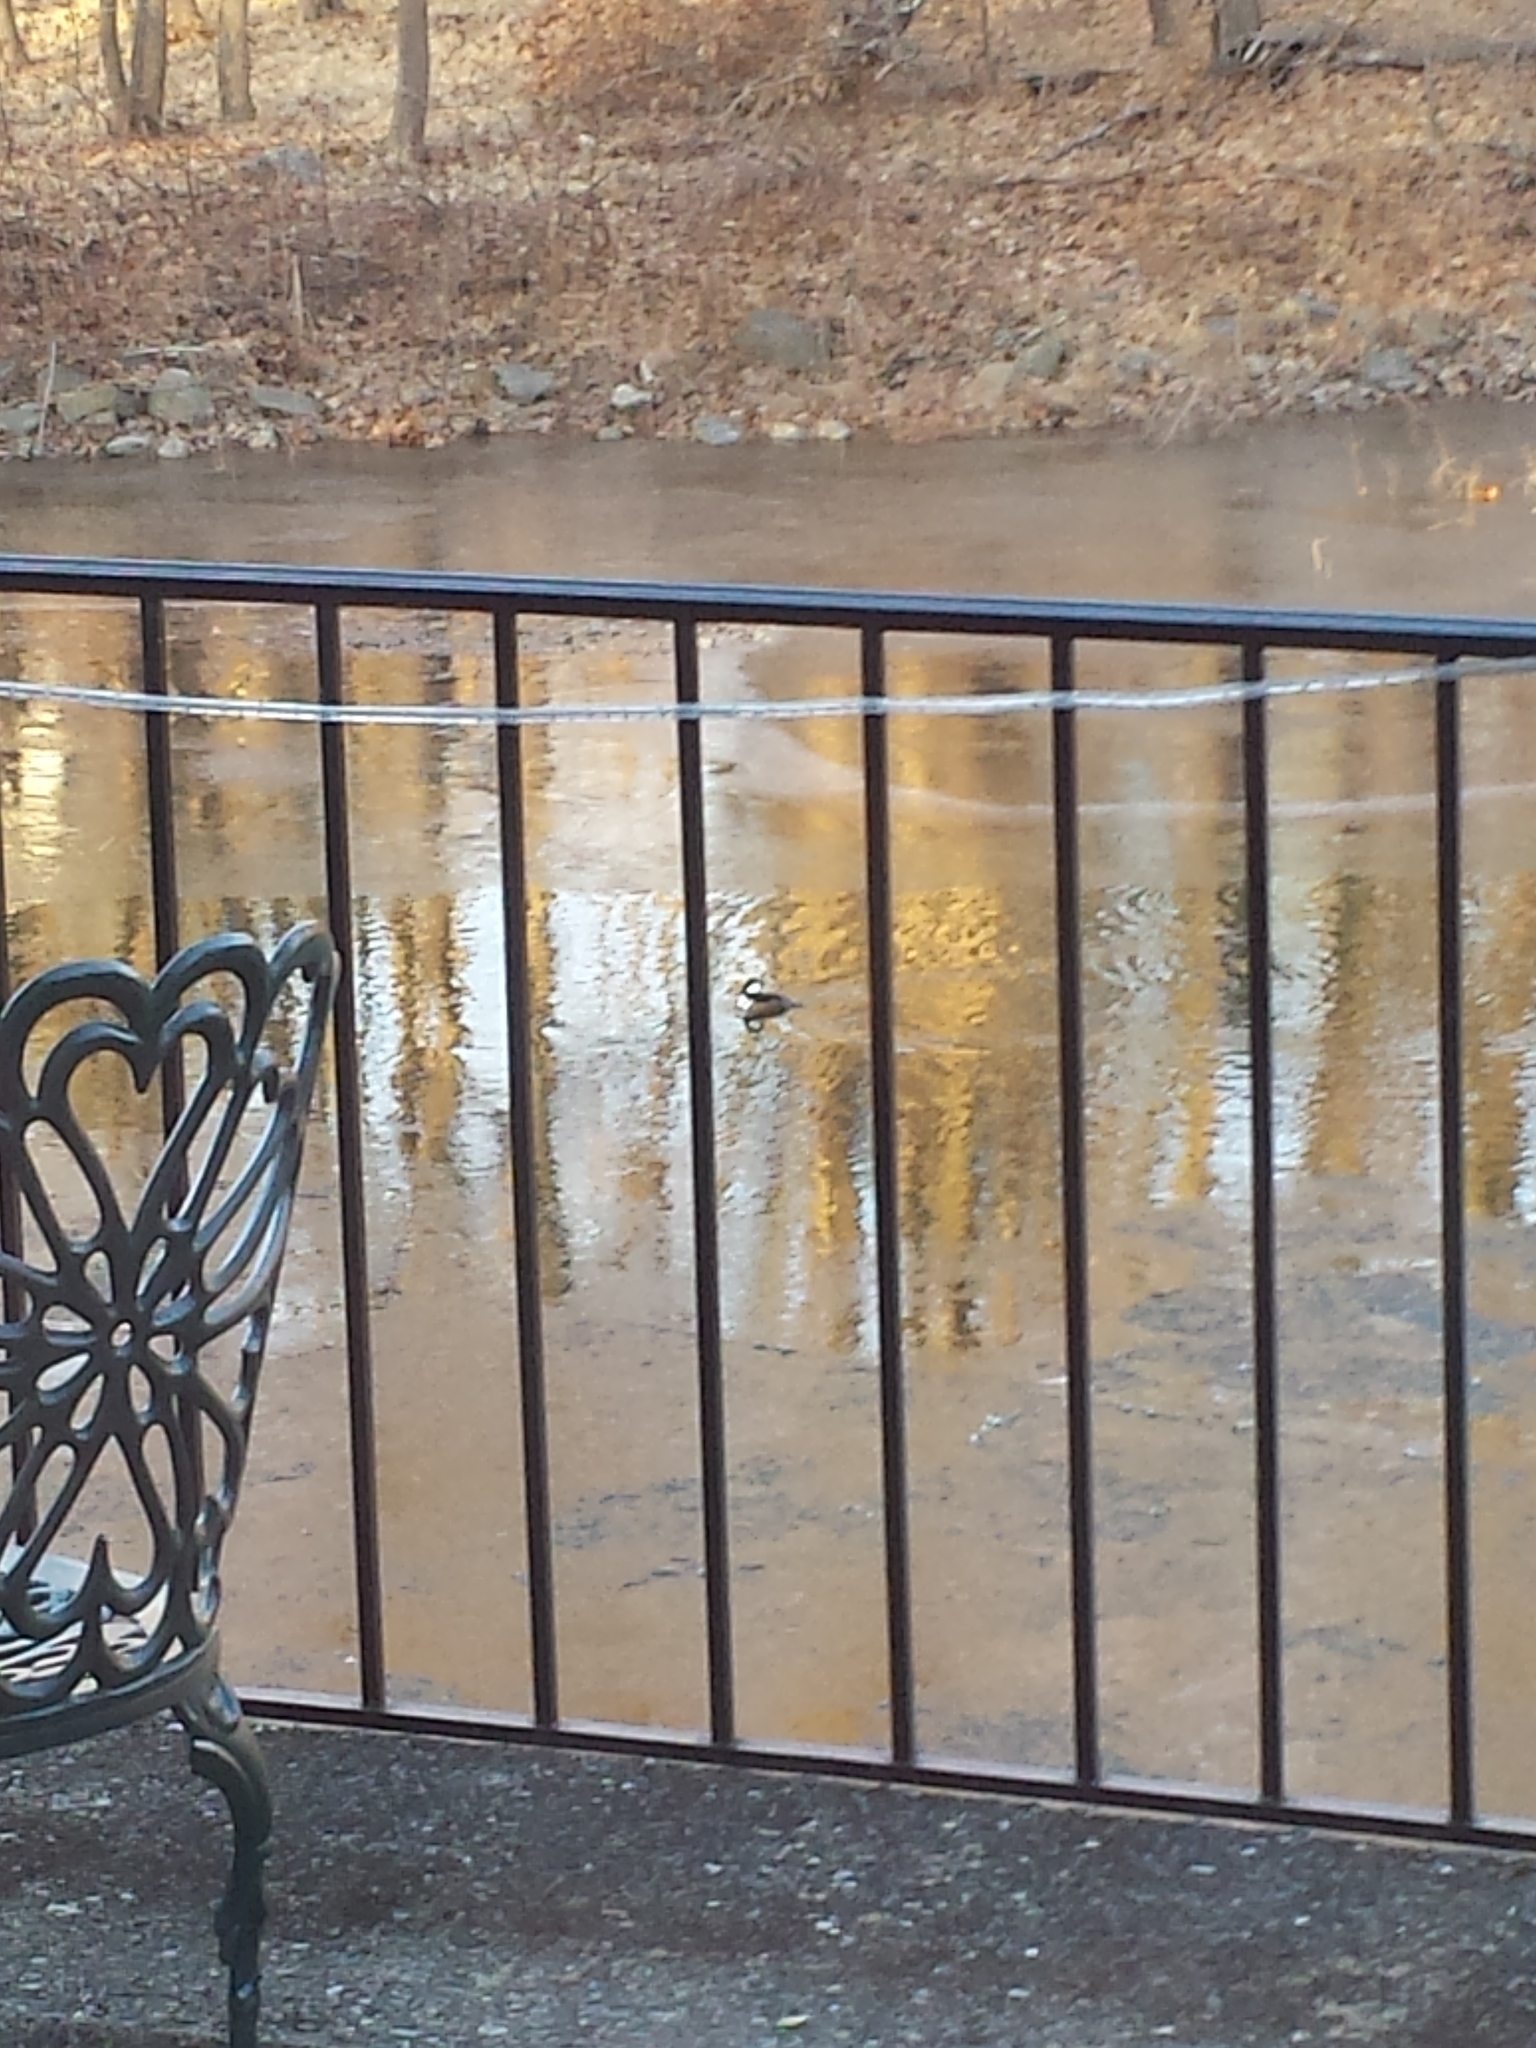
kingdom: Animalia
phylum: Chordata
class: Aves
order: Anseriformes
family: Anatidae
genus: Lophodytes
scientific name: Lophodytes cucullatus
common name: Hooded merganser
